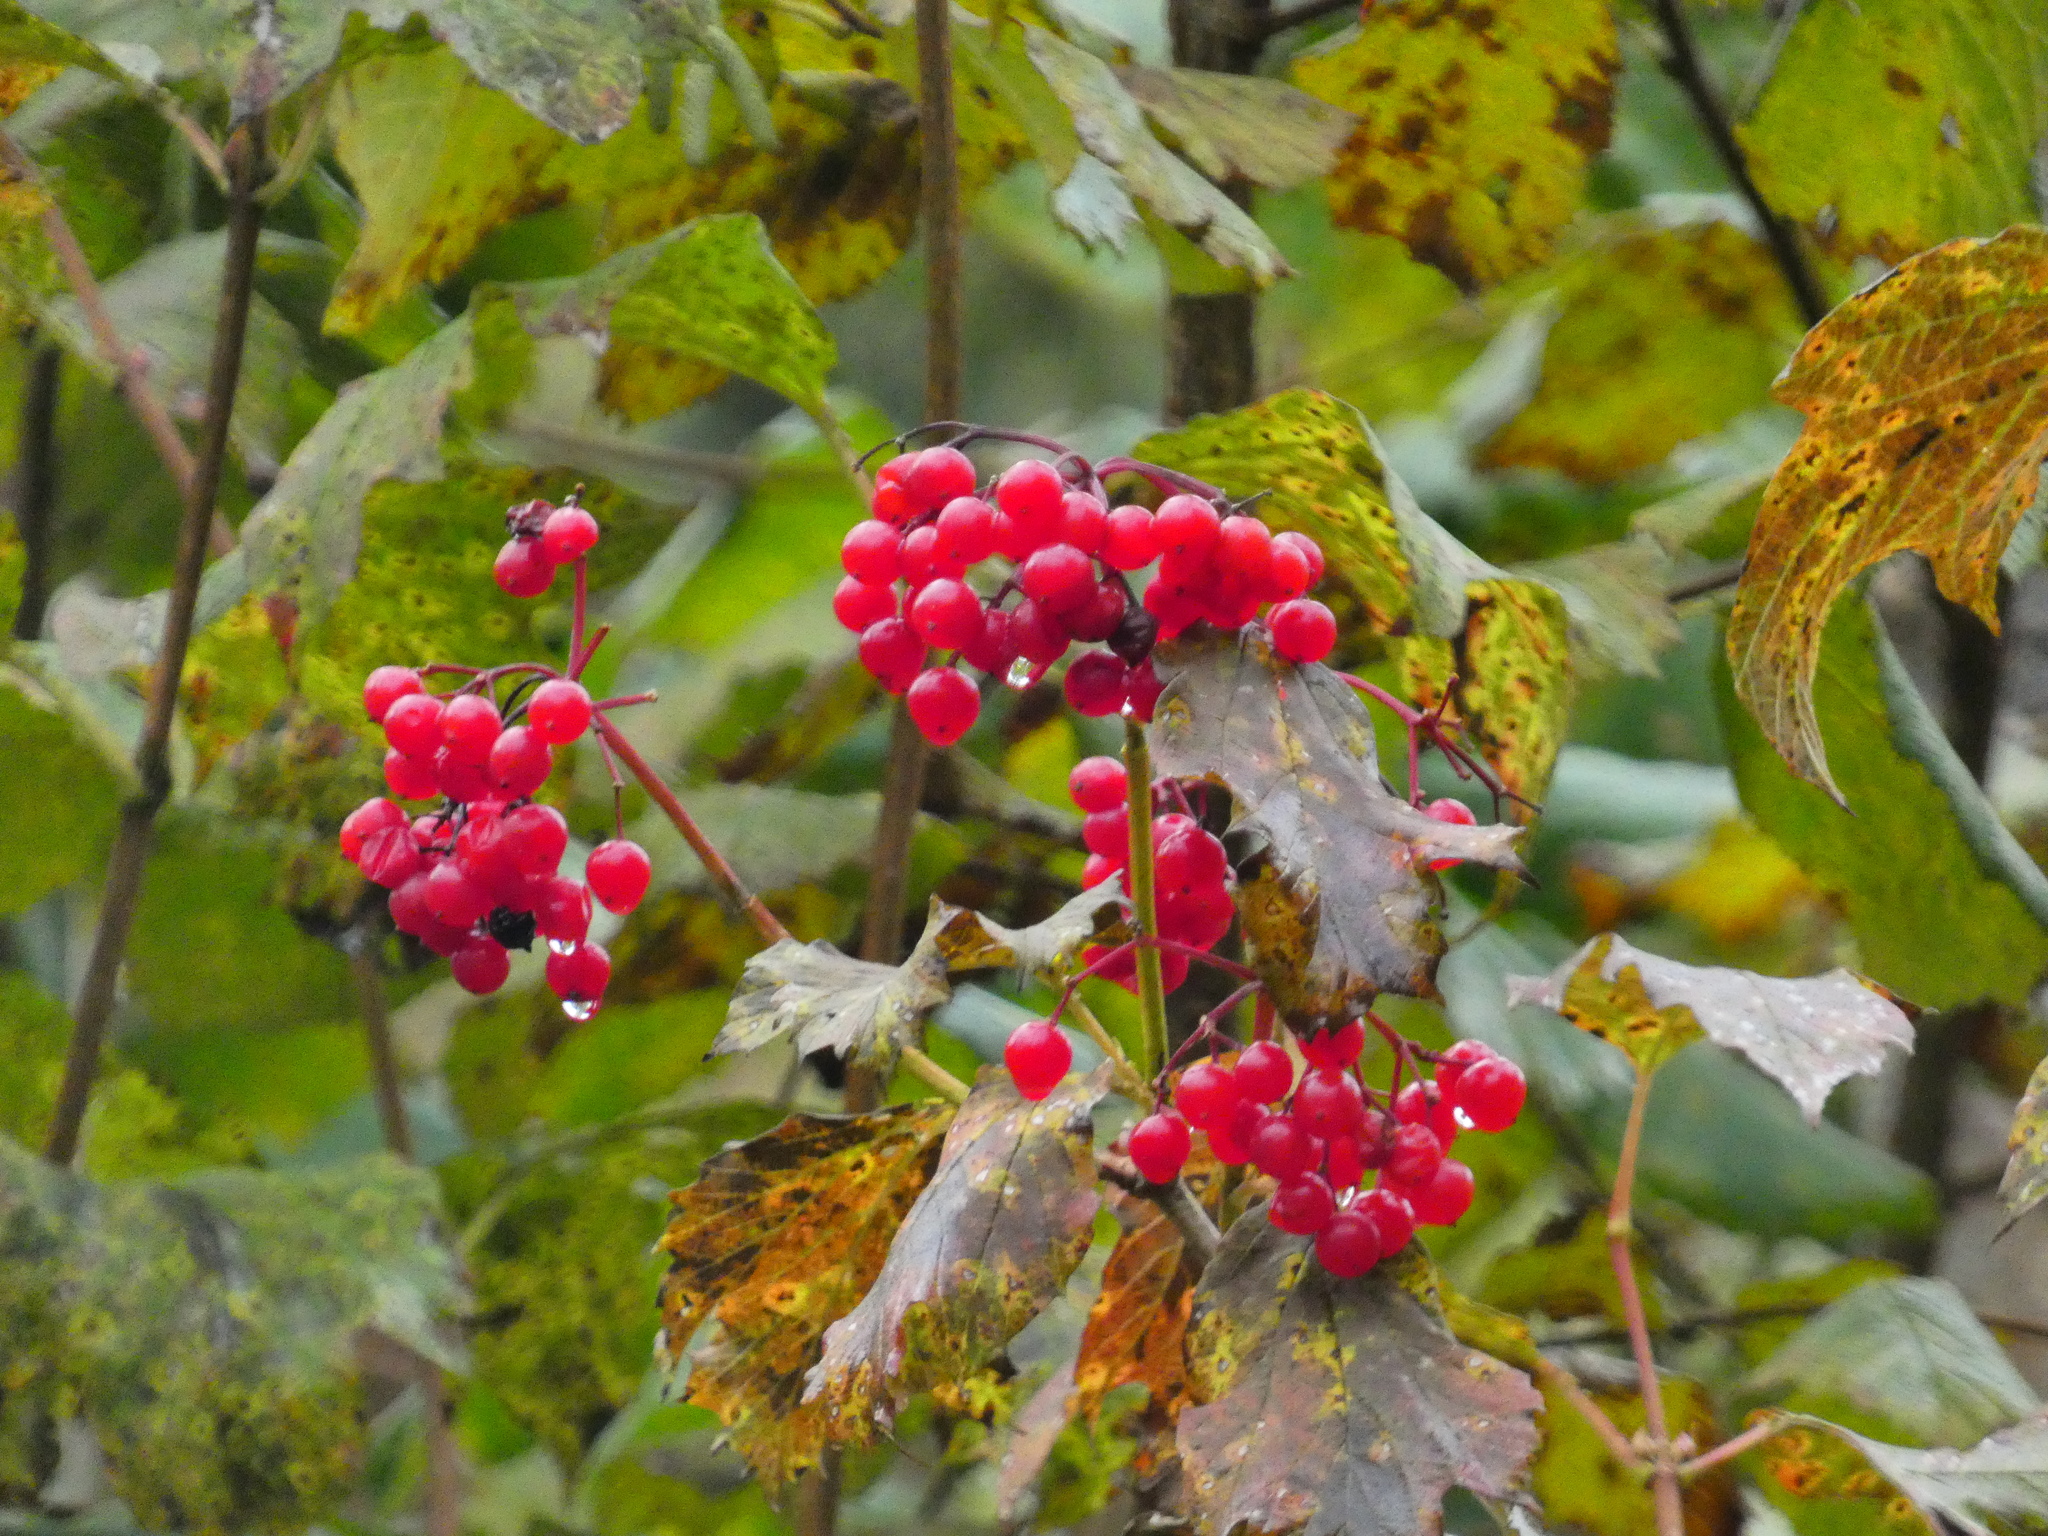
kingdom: Plantae
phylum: Tracheophyta
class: Magnoliopsida
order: Dipsacales
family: Viburnaceae
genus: Viburnum
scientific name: Viburnum opulus
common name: Guelder-rose
